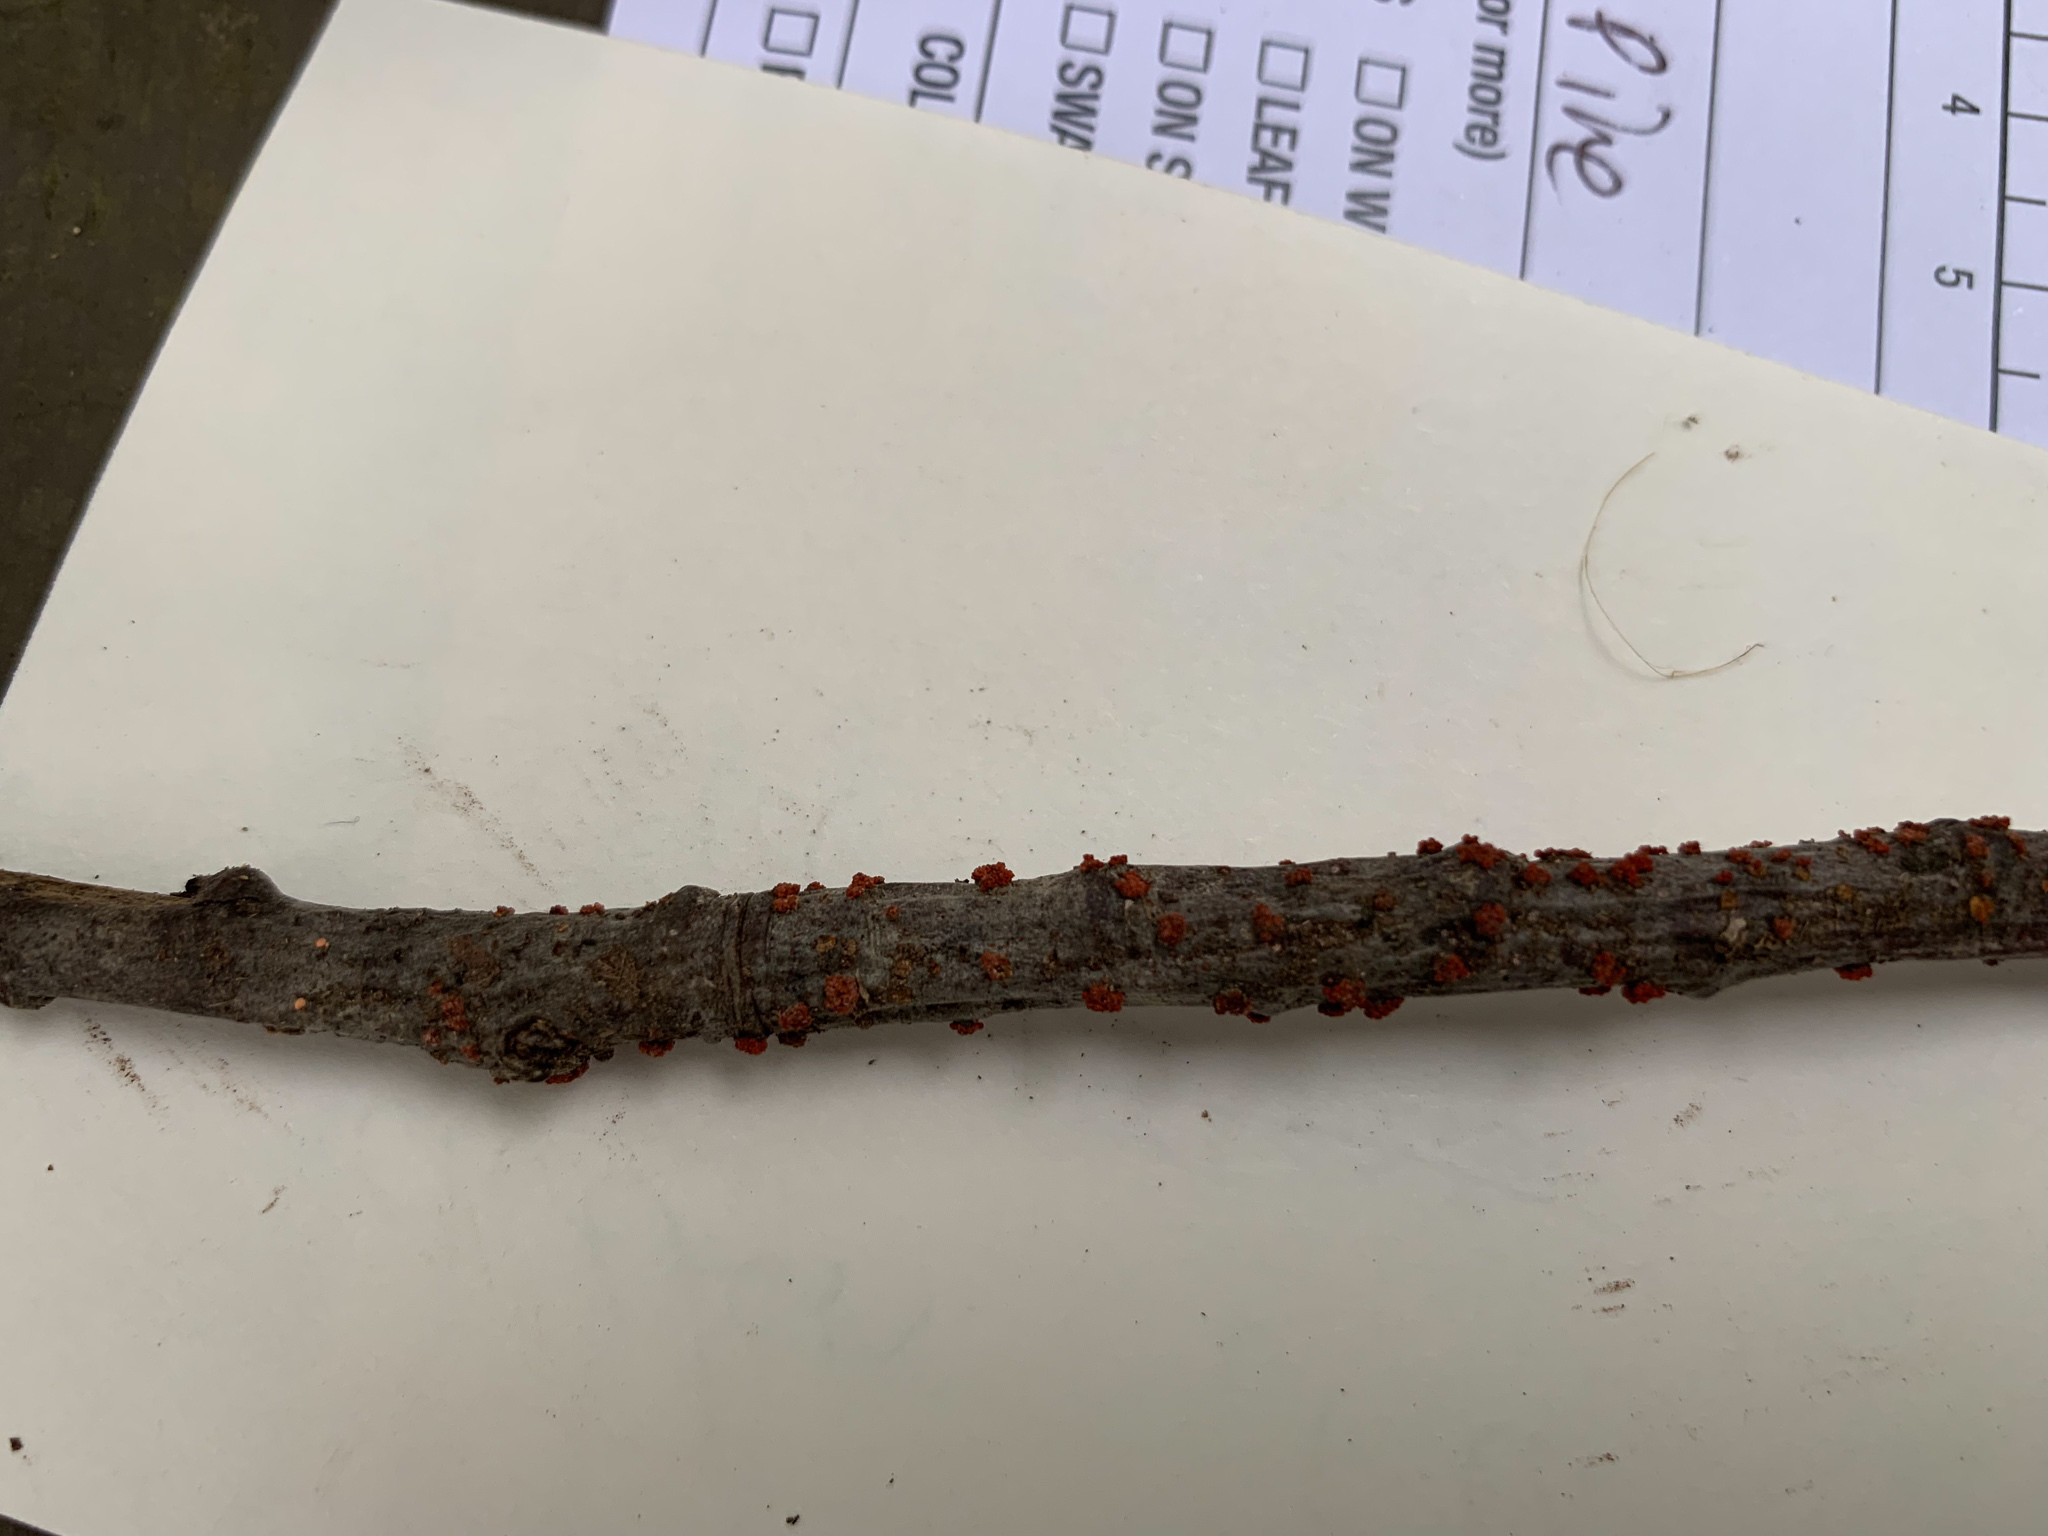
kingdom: Fungi
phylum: Ascomycota
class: Sordariomycetes
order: Hypocreales
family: Nectriaceae
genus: Nectria
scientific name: Nectria cinnabarina
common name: Coral spot
